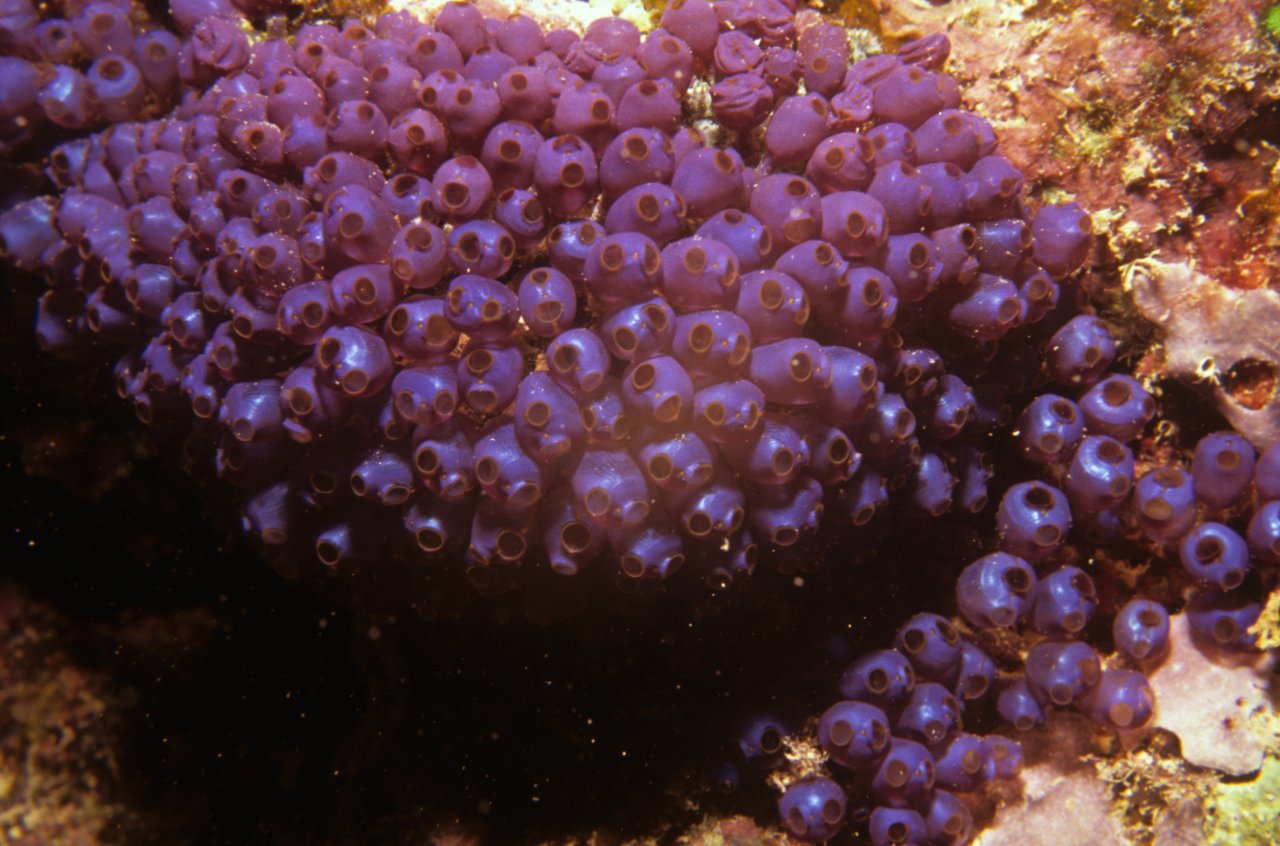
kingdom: Animalia
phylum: Chordata
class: Ascidiacea
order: Aplousobranchia
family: Clavelinidae
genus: Pycnoclavella
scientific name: Pycnoclavella diminuta
